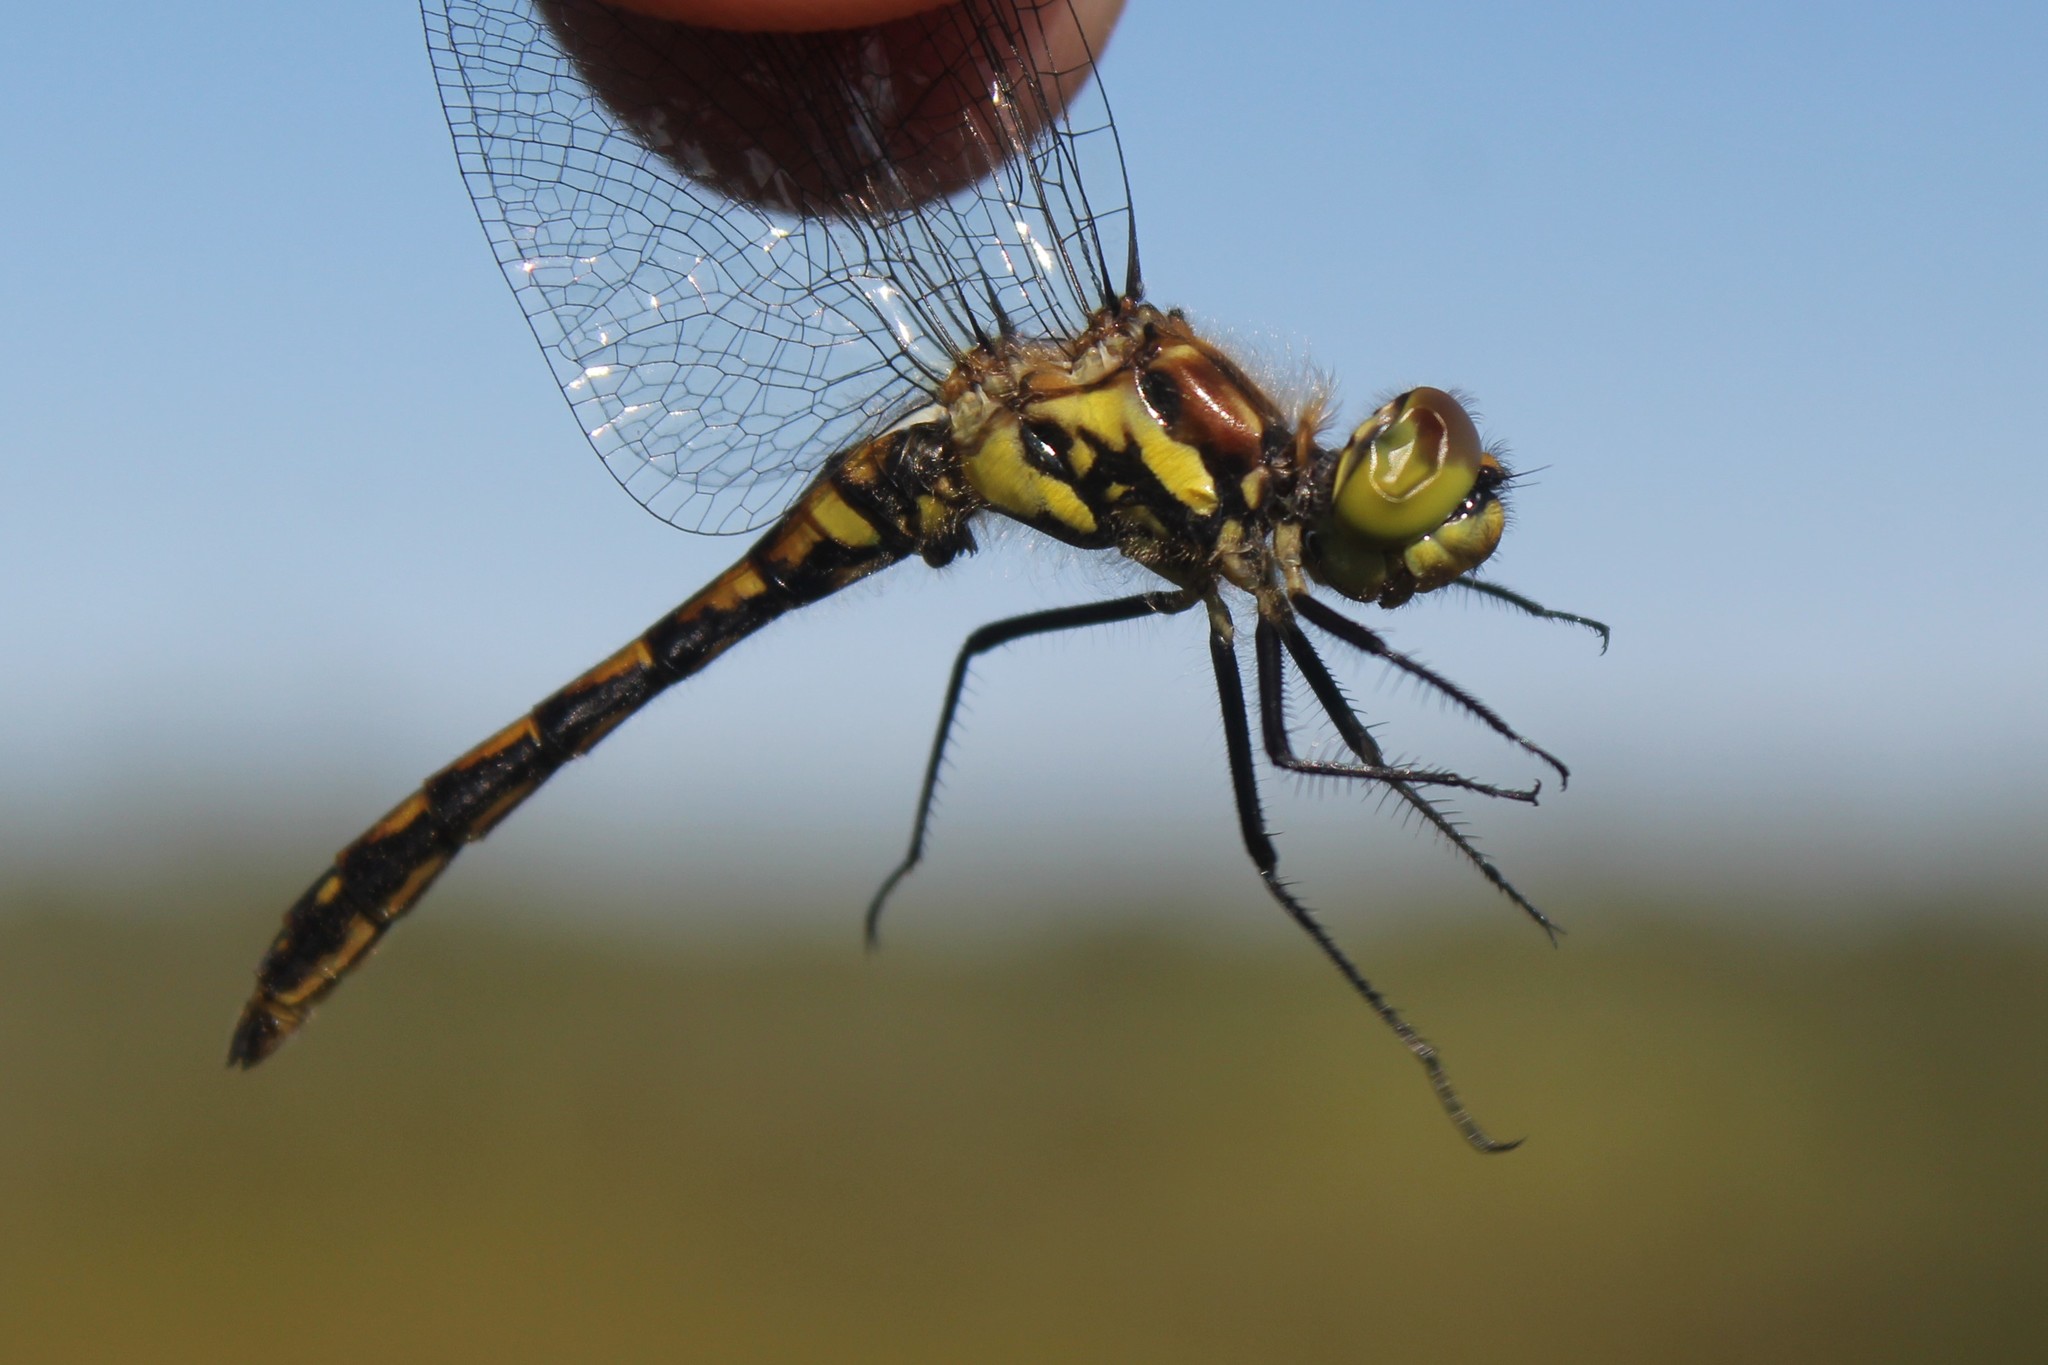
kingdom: Animalia
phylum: Arthropoda
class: Insecta
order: Odonata
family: Libellulidae
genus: Sympetrum
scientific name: Sympetrum danae
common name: Black darter
